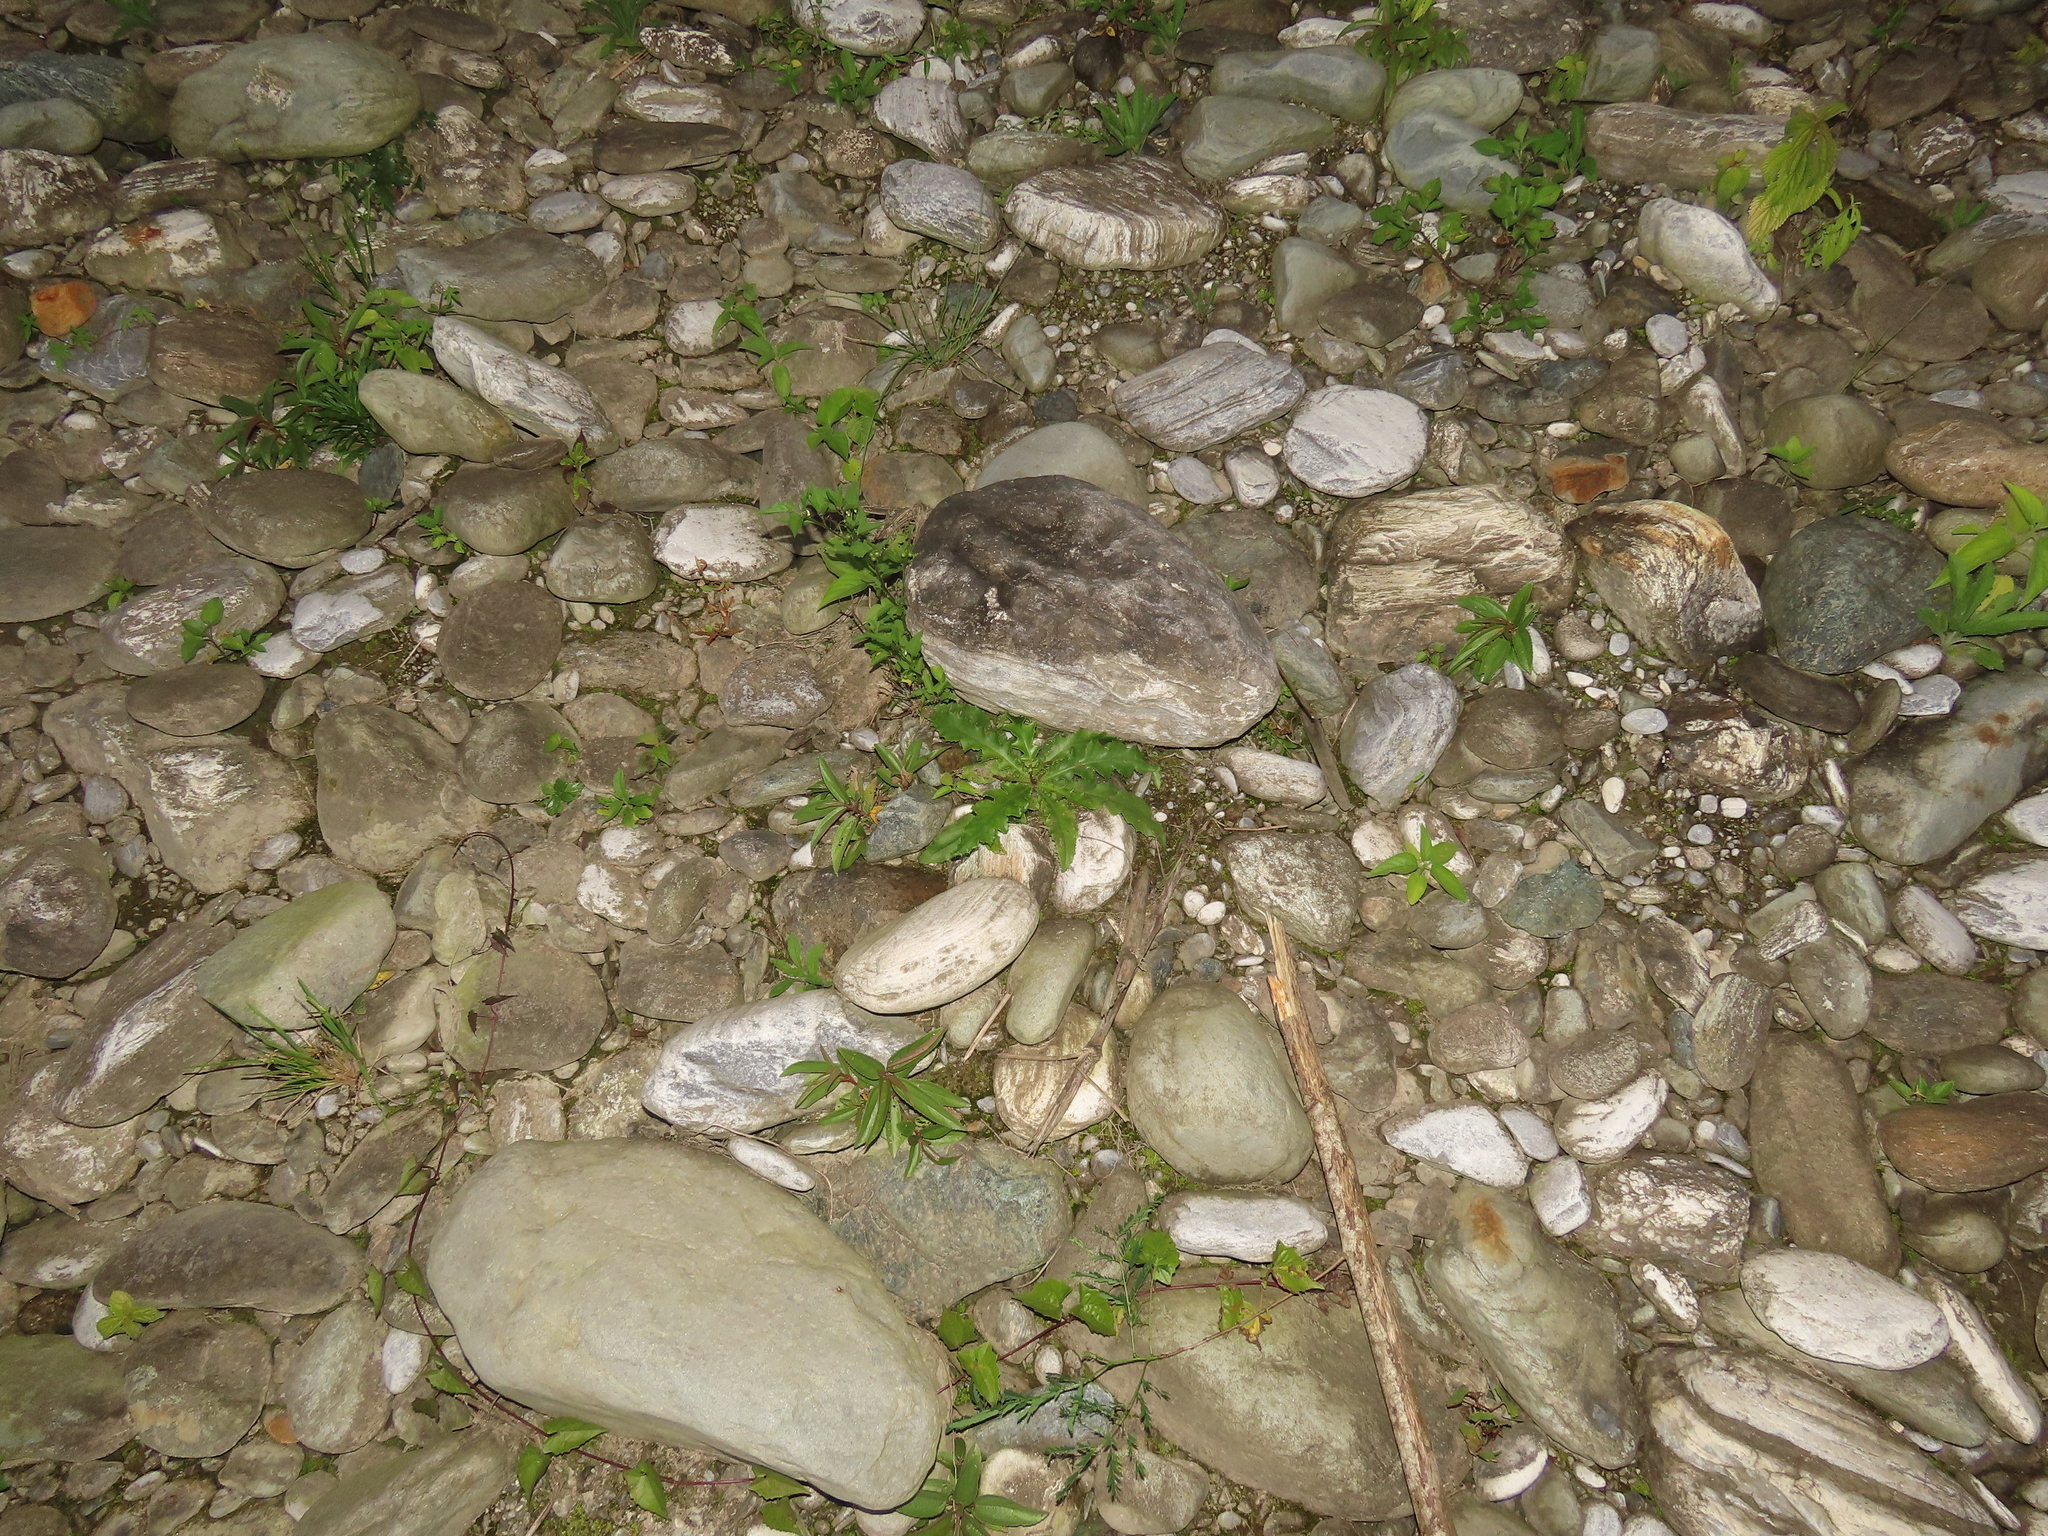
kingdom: Plantae
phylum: Tracheophyta
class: Magnoliopsida
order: Asterales
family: Asteraceae
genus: Ixeridium
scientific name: Ixeridium laevigatum
